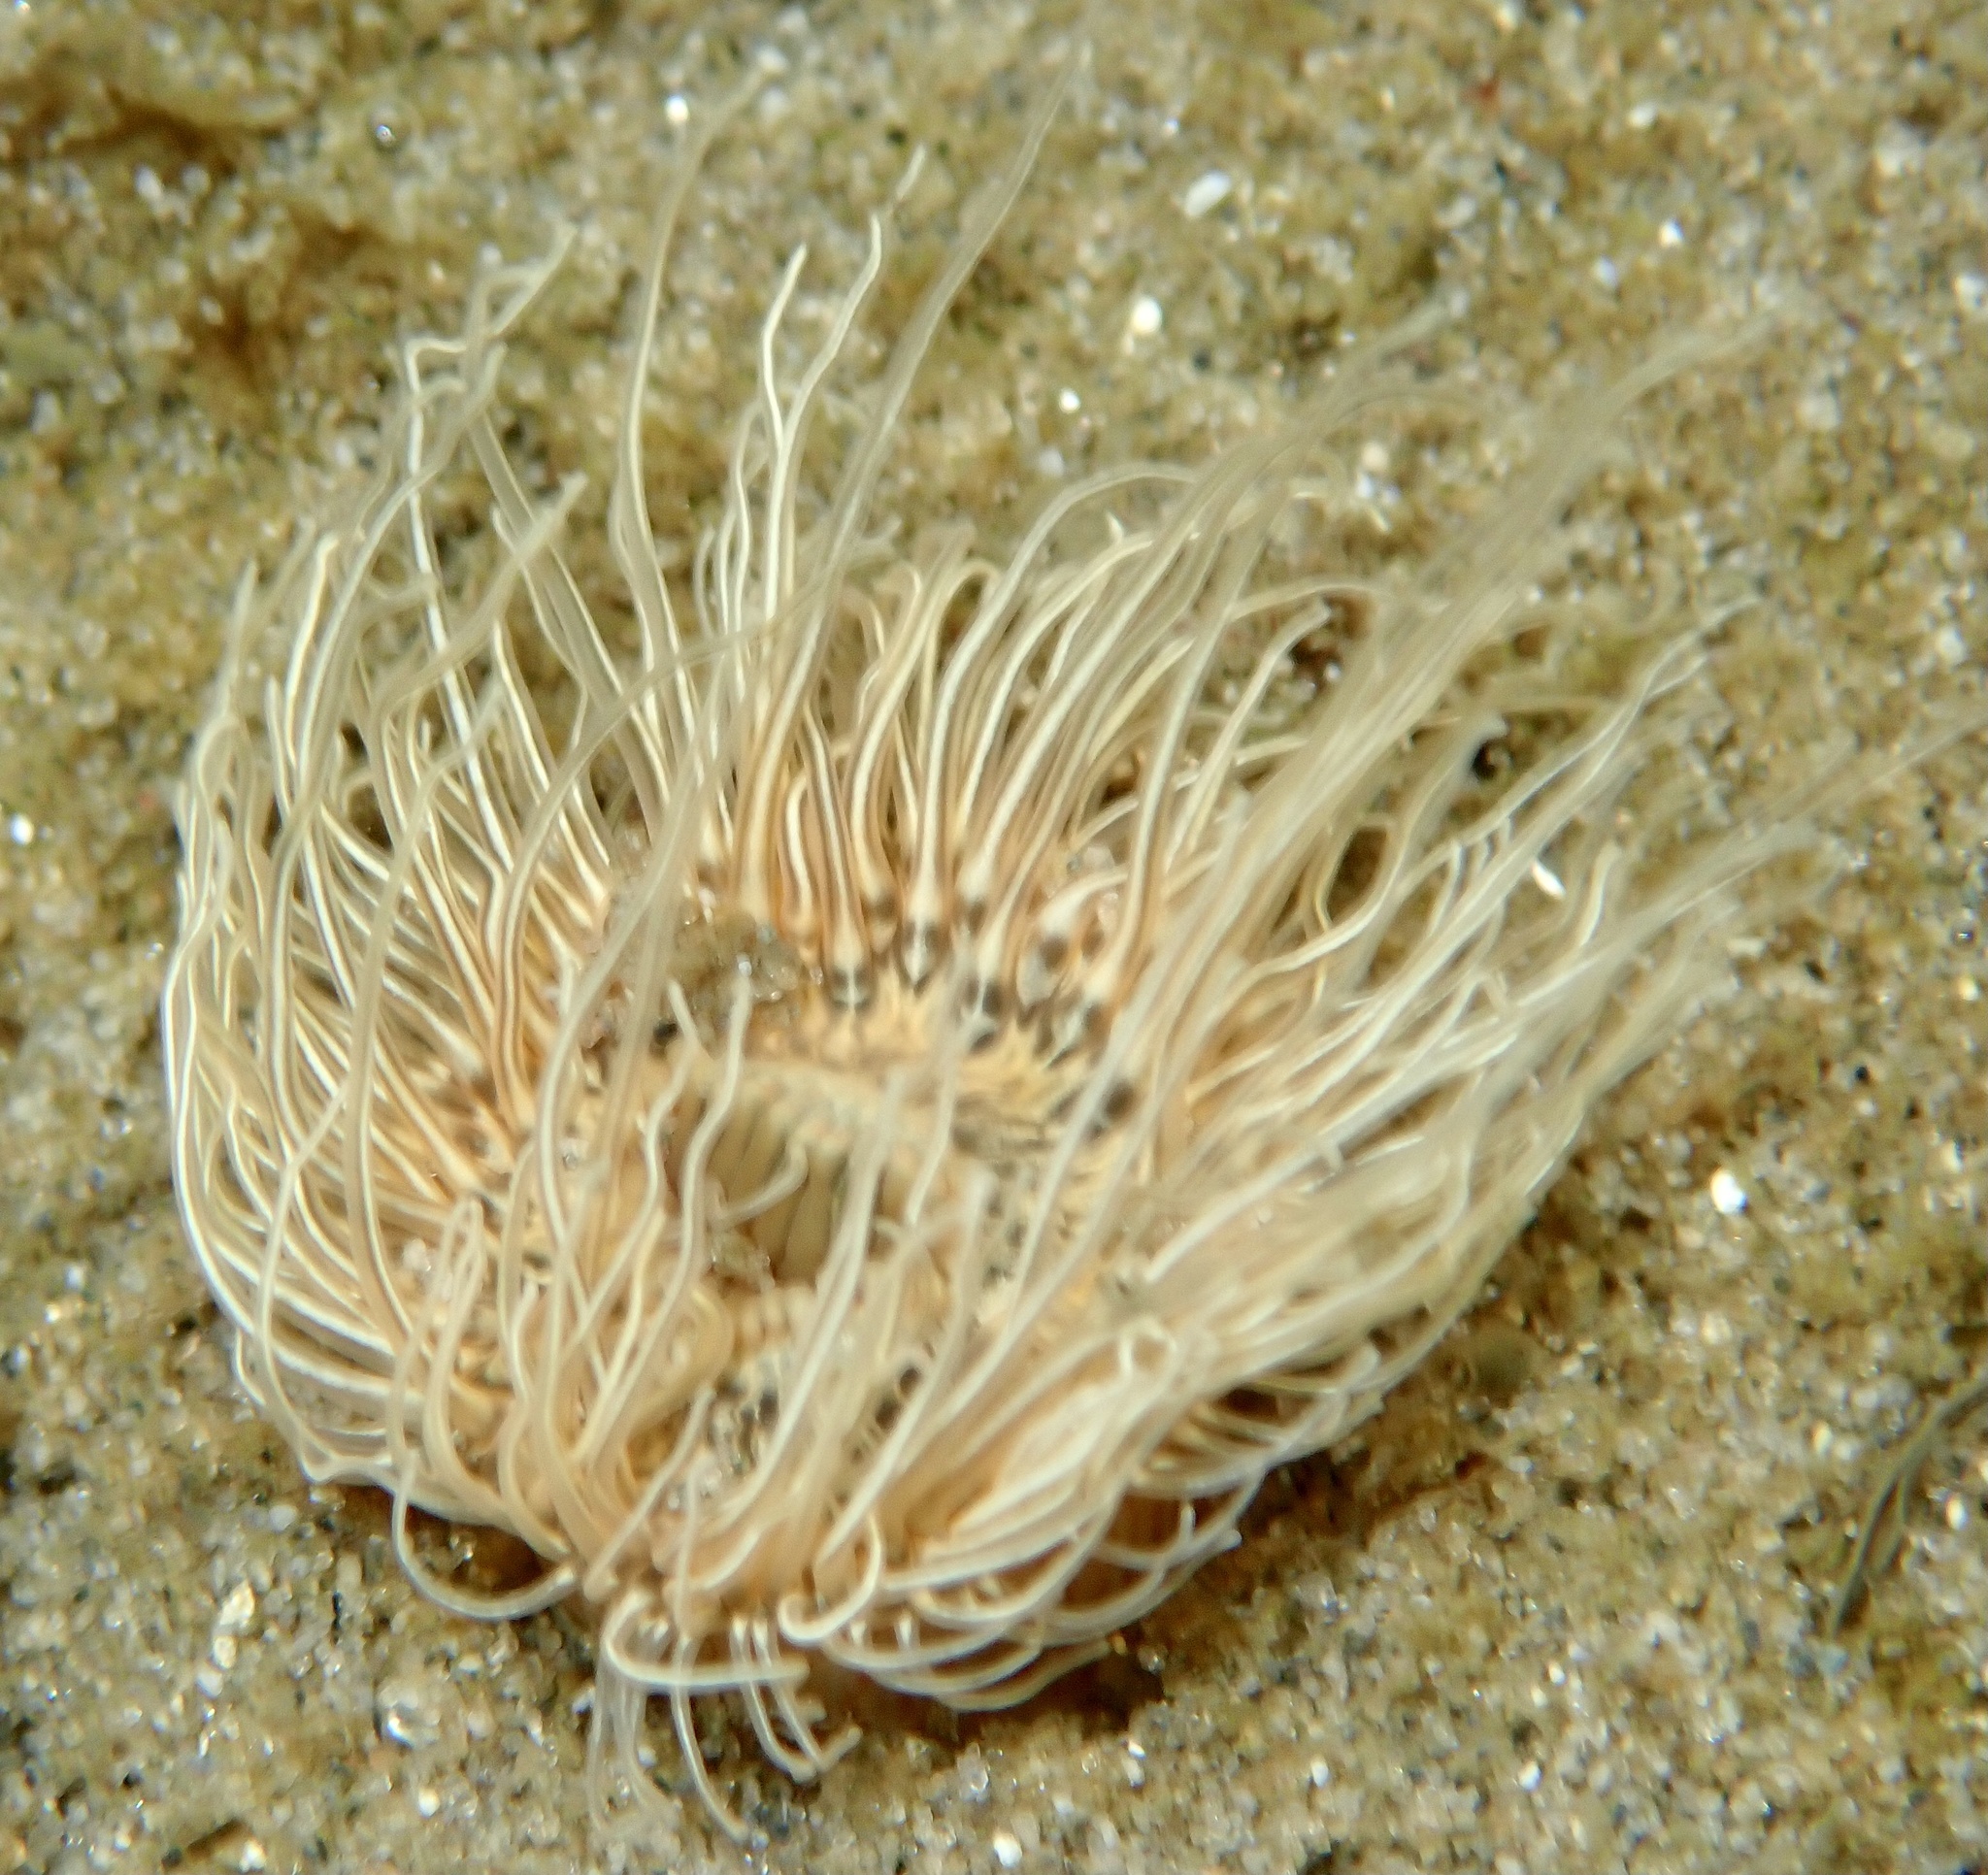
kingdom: Animalia
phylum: Cnidaria
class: Anthozoa
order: Actiniaria
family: Sagartiidae
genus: Sagartia
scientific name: Sagartia undata
